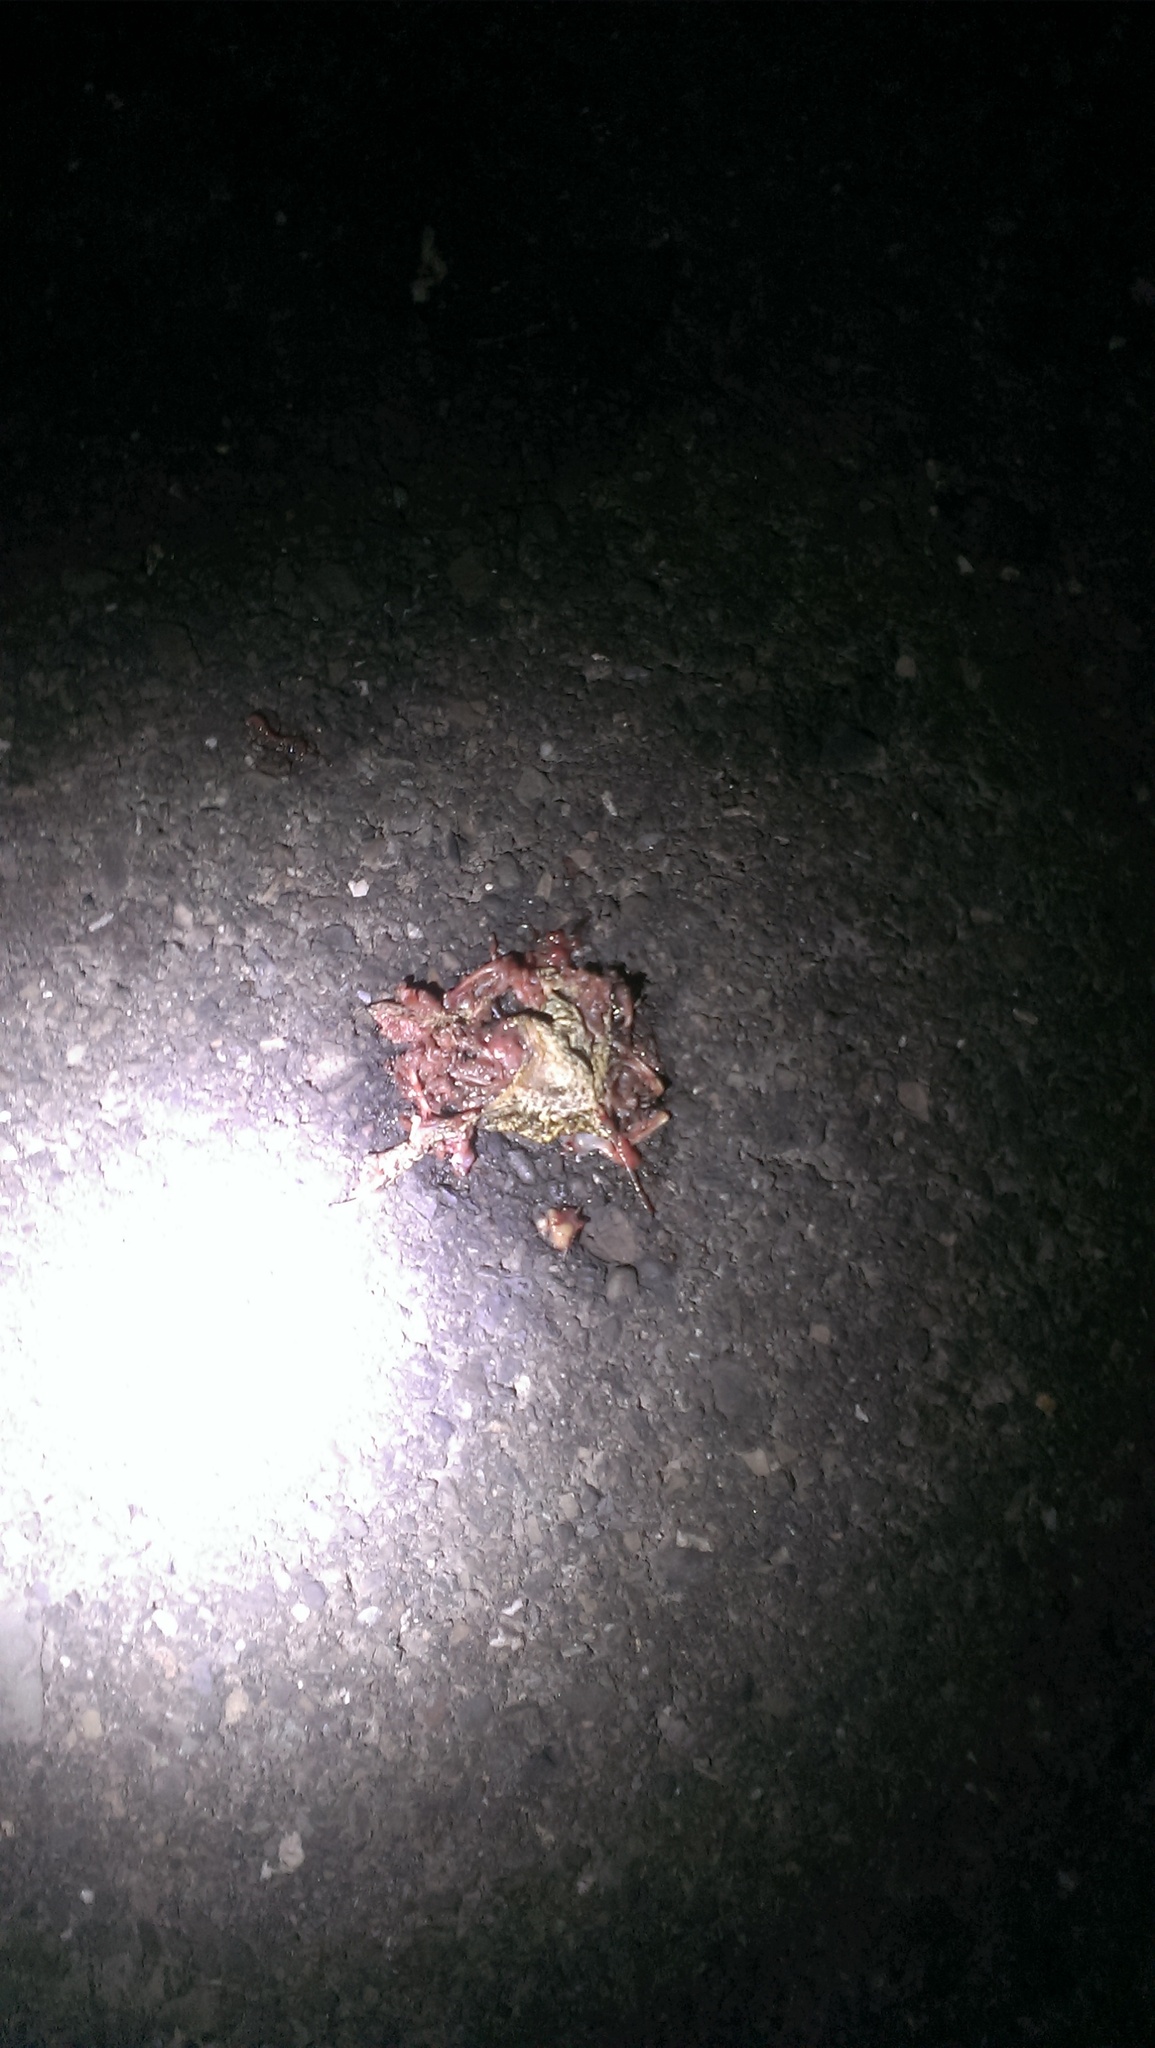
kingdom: Animalia
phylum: Chordata
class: Amphibia
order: Anura
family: Bufonidae
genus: Duttaphrynus
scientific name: Duttaphrynus melanostictus
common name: Common sunda toad
